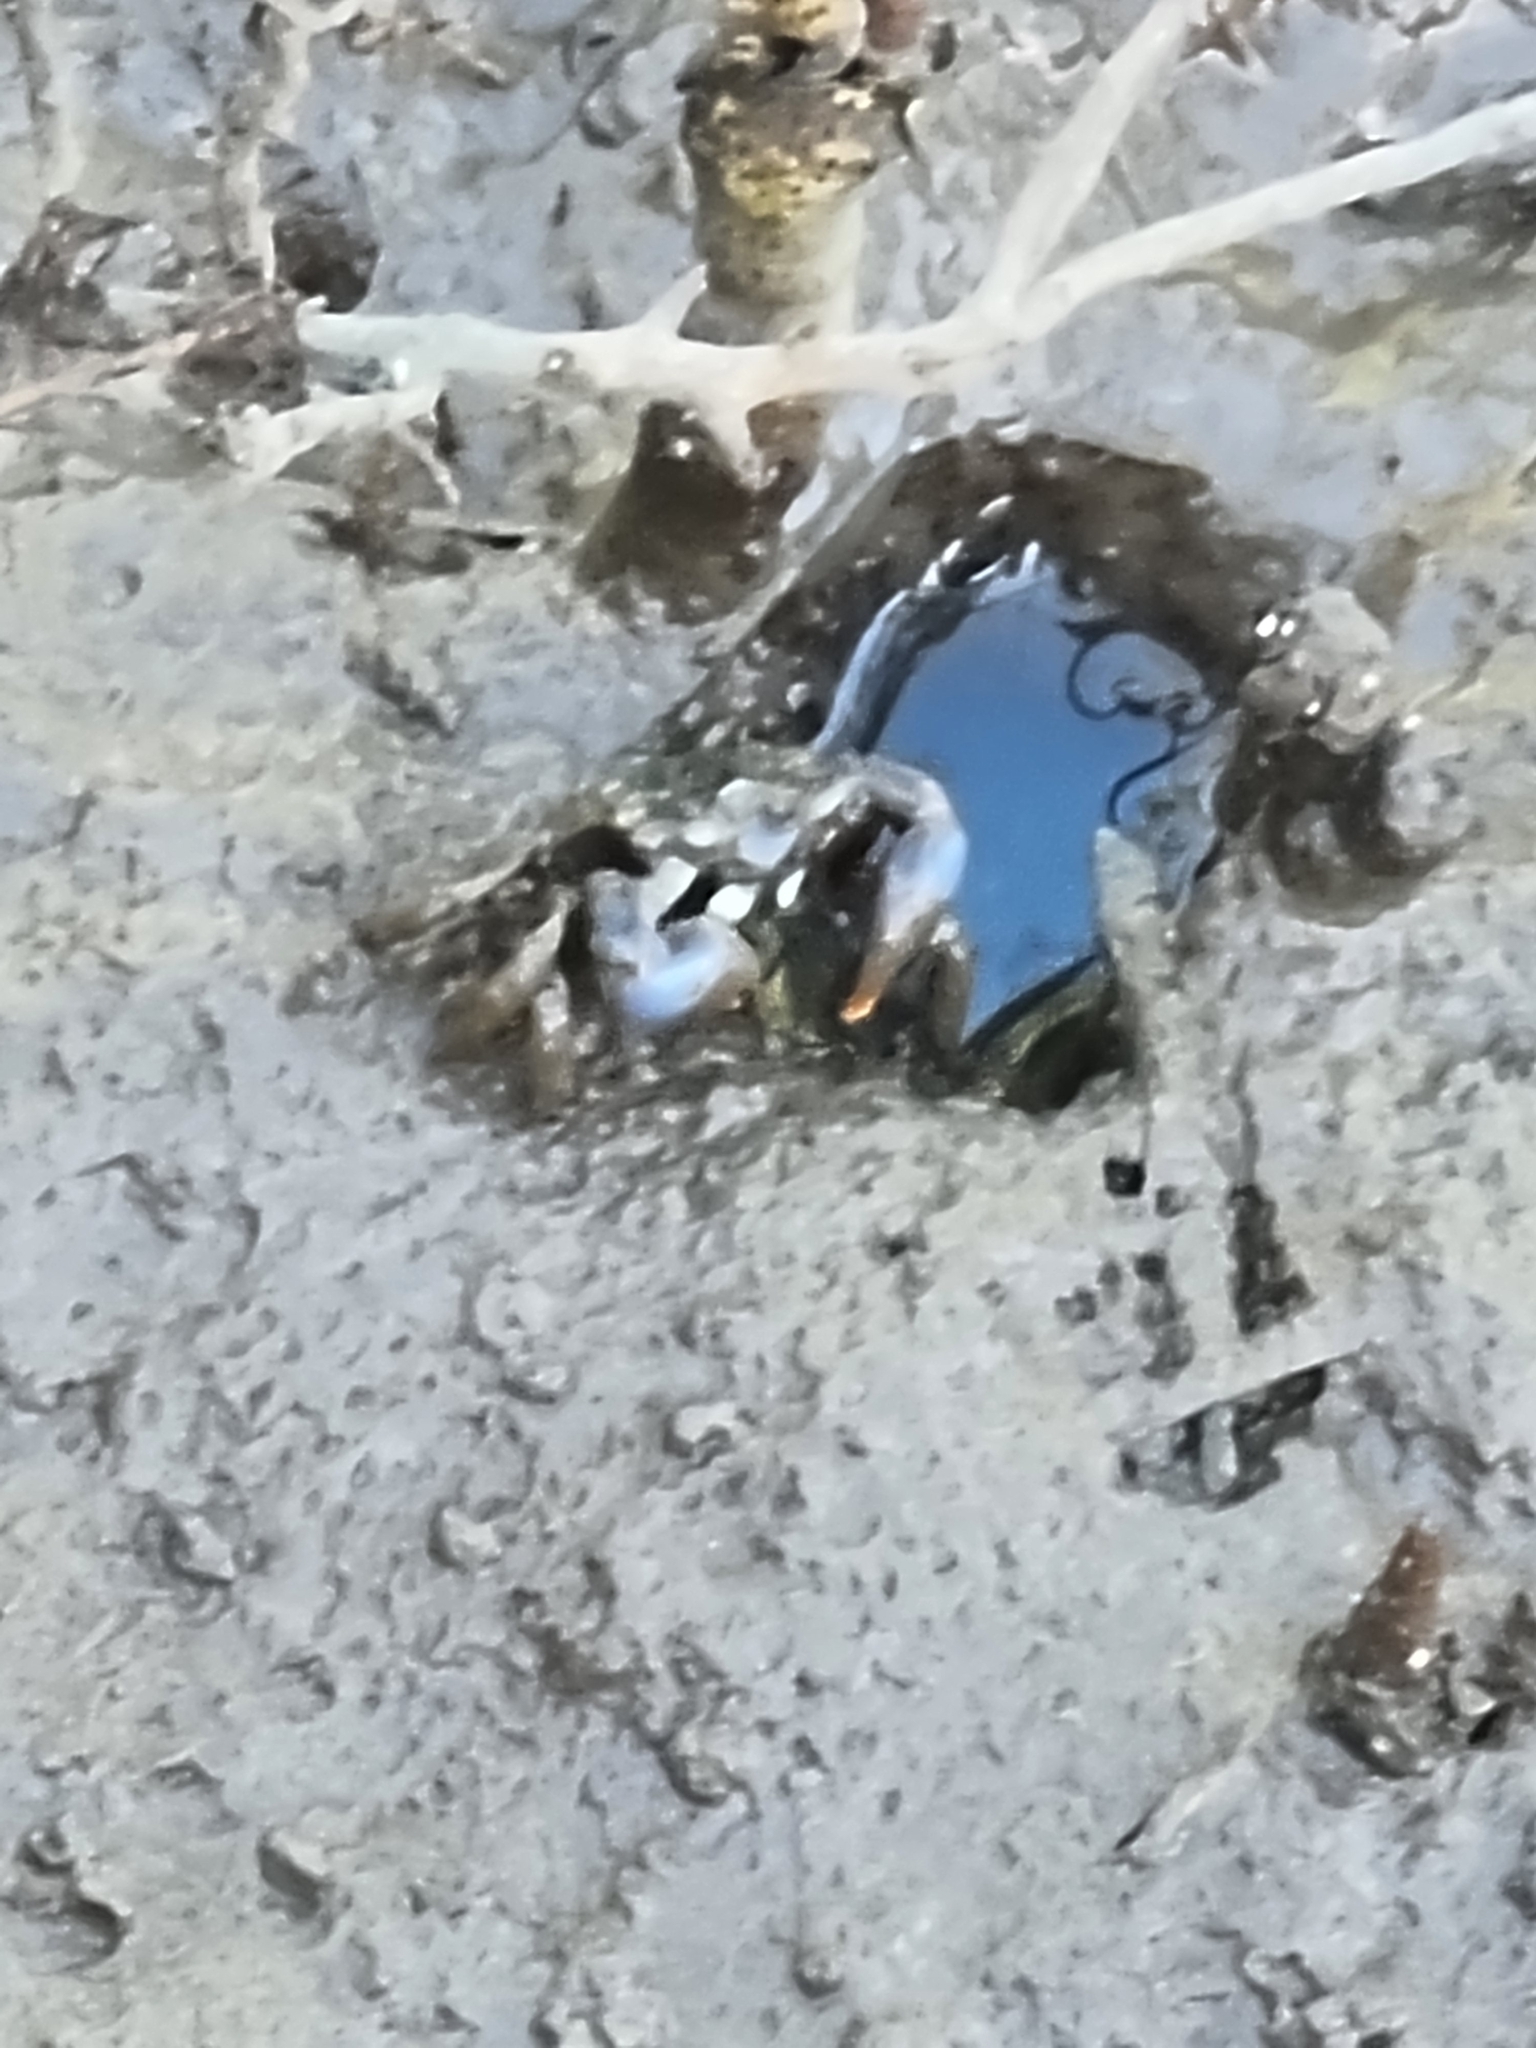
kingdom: Animalia
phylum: Arthropoda
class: Malacostraca
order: Decapoda
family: Macrophthalmidae
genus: Australoplax
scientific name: Australoplax tridentata
